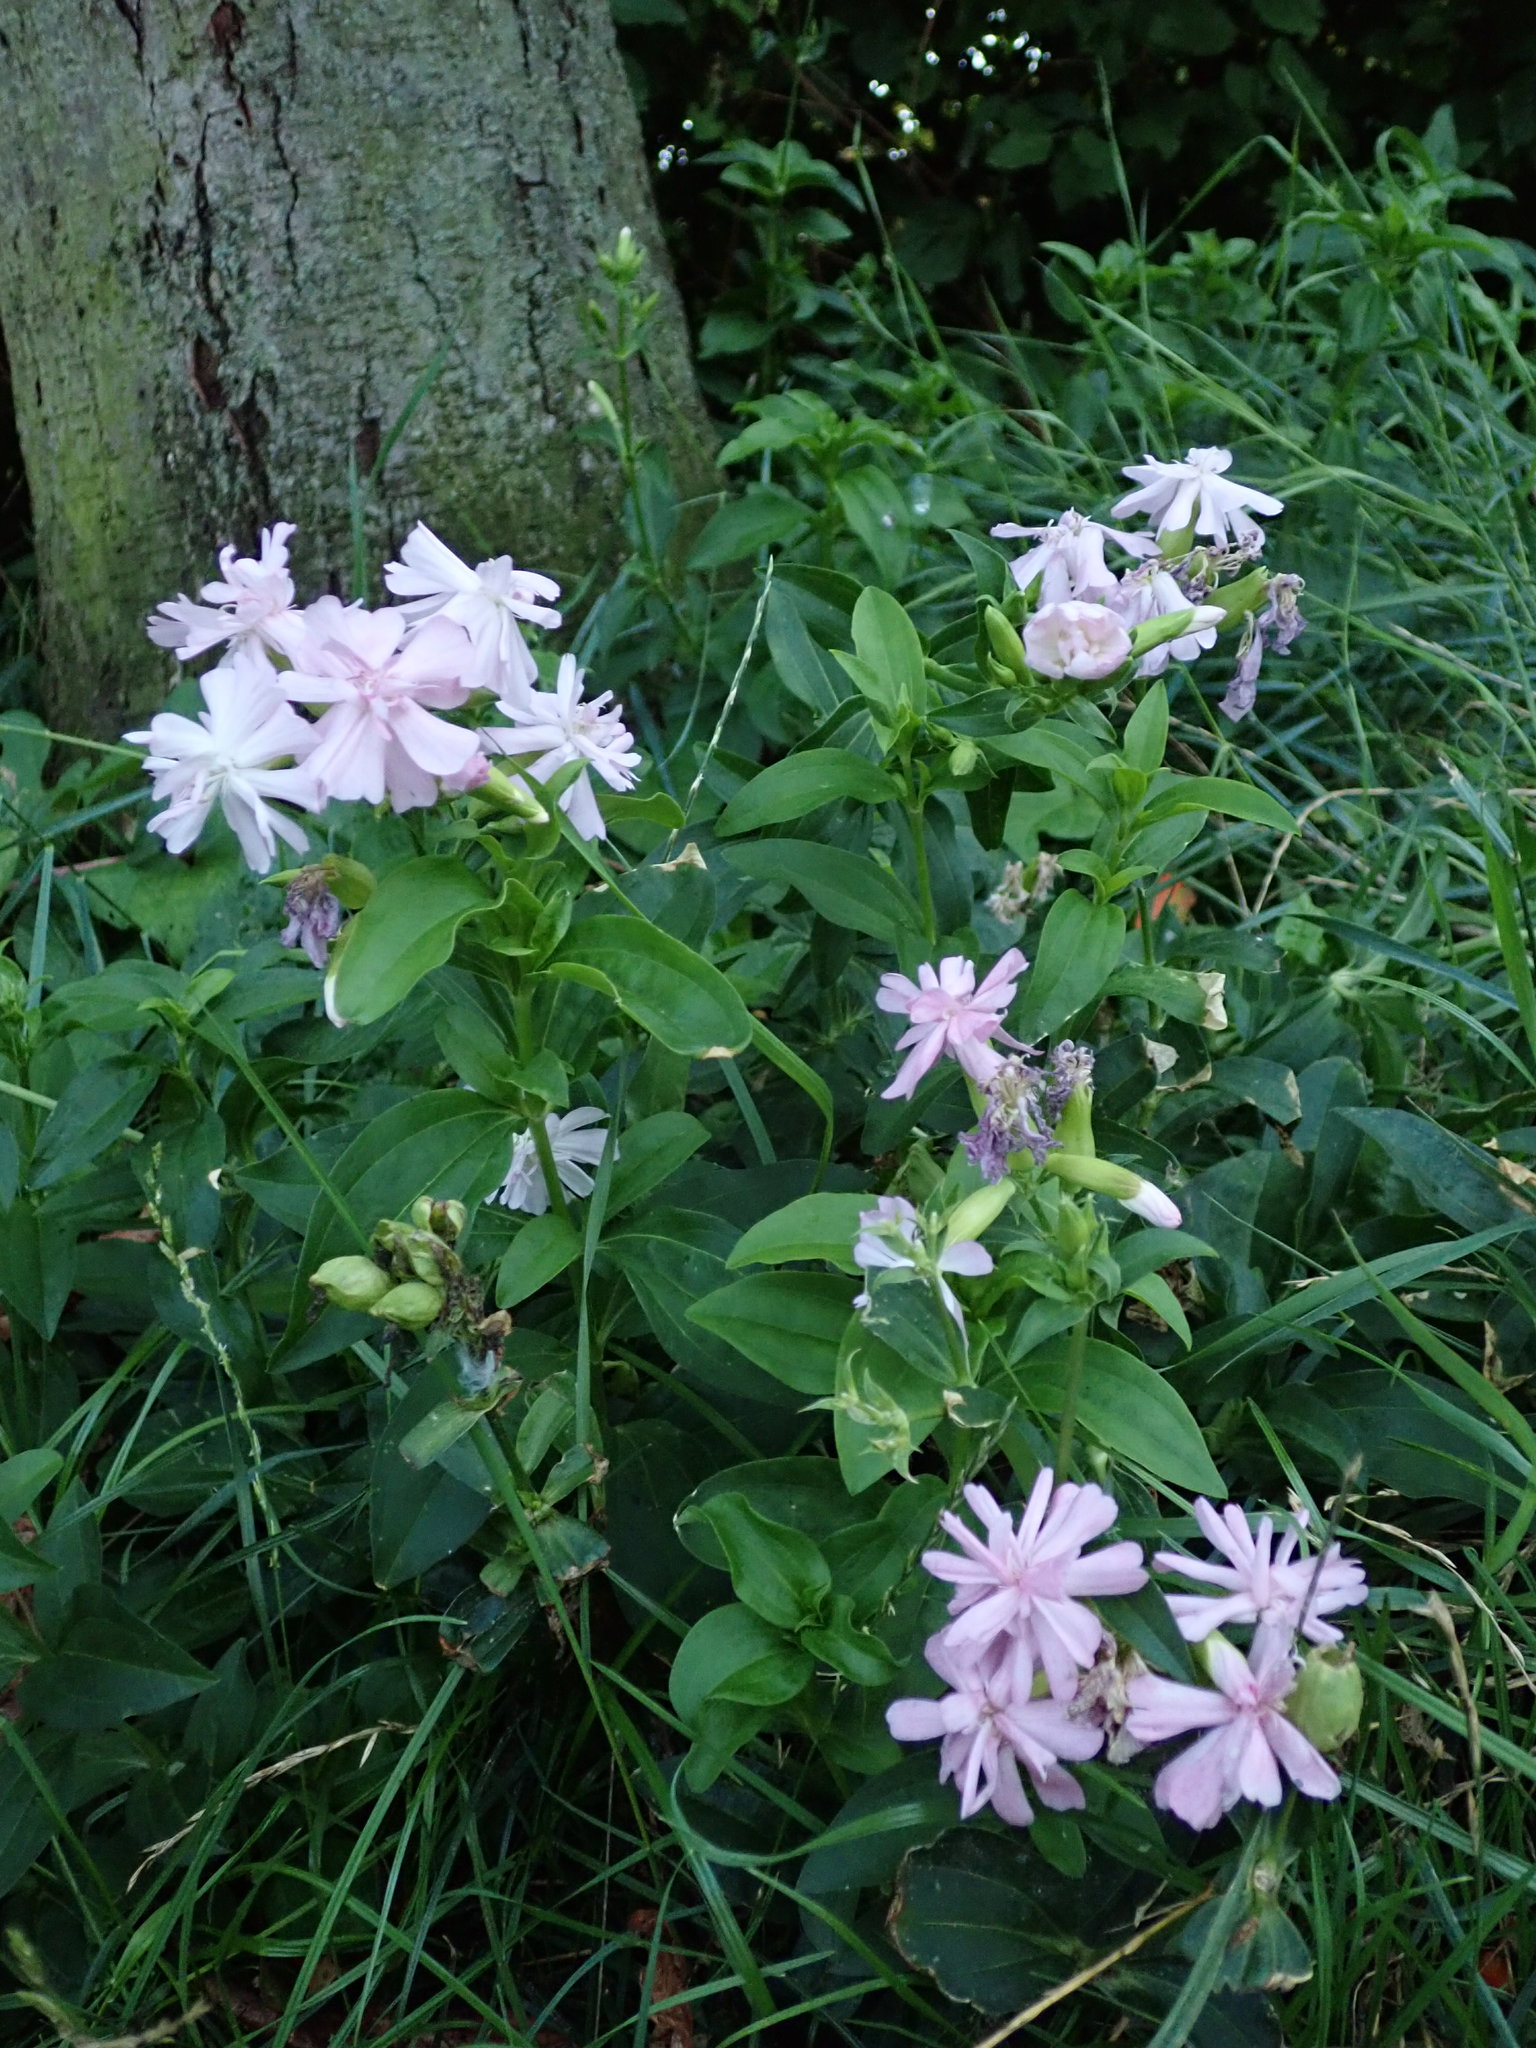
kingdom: Plantae
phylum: Tracheophyta
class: Magnoliopsida
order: Caryophyllales
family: Caryophyllaceae
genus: Saponaria
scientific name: Saponaria officinalis
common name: Soapwort
